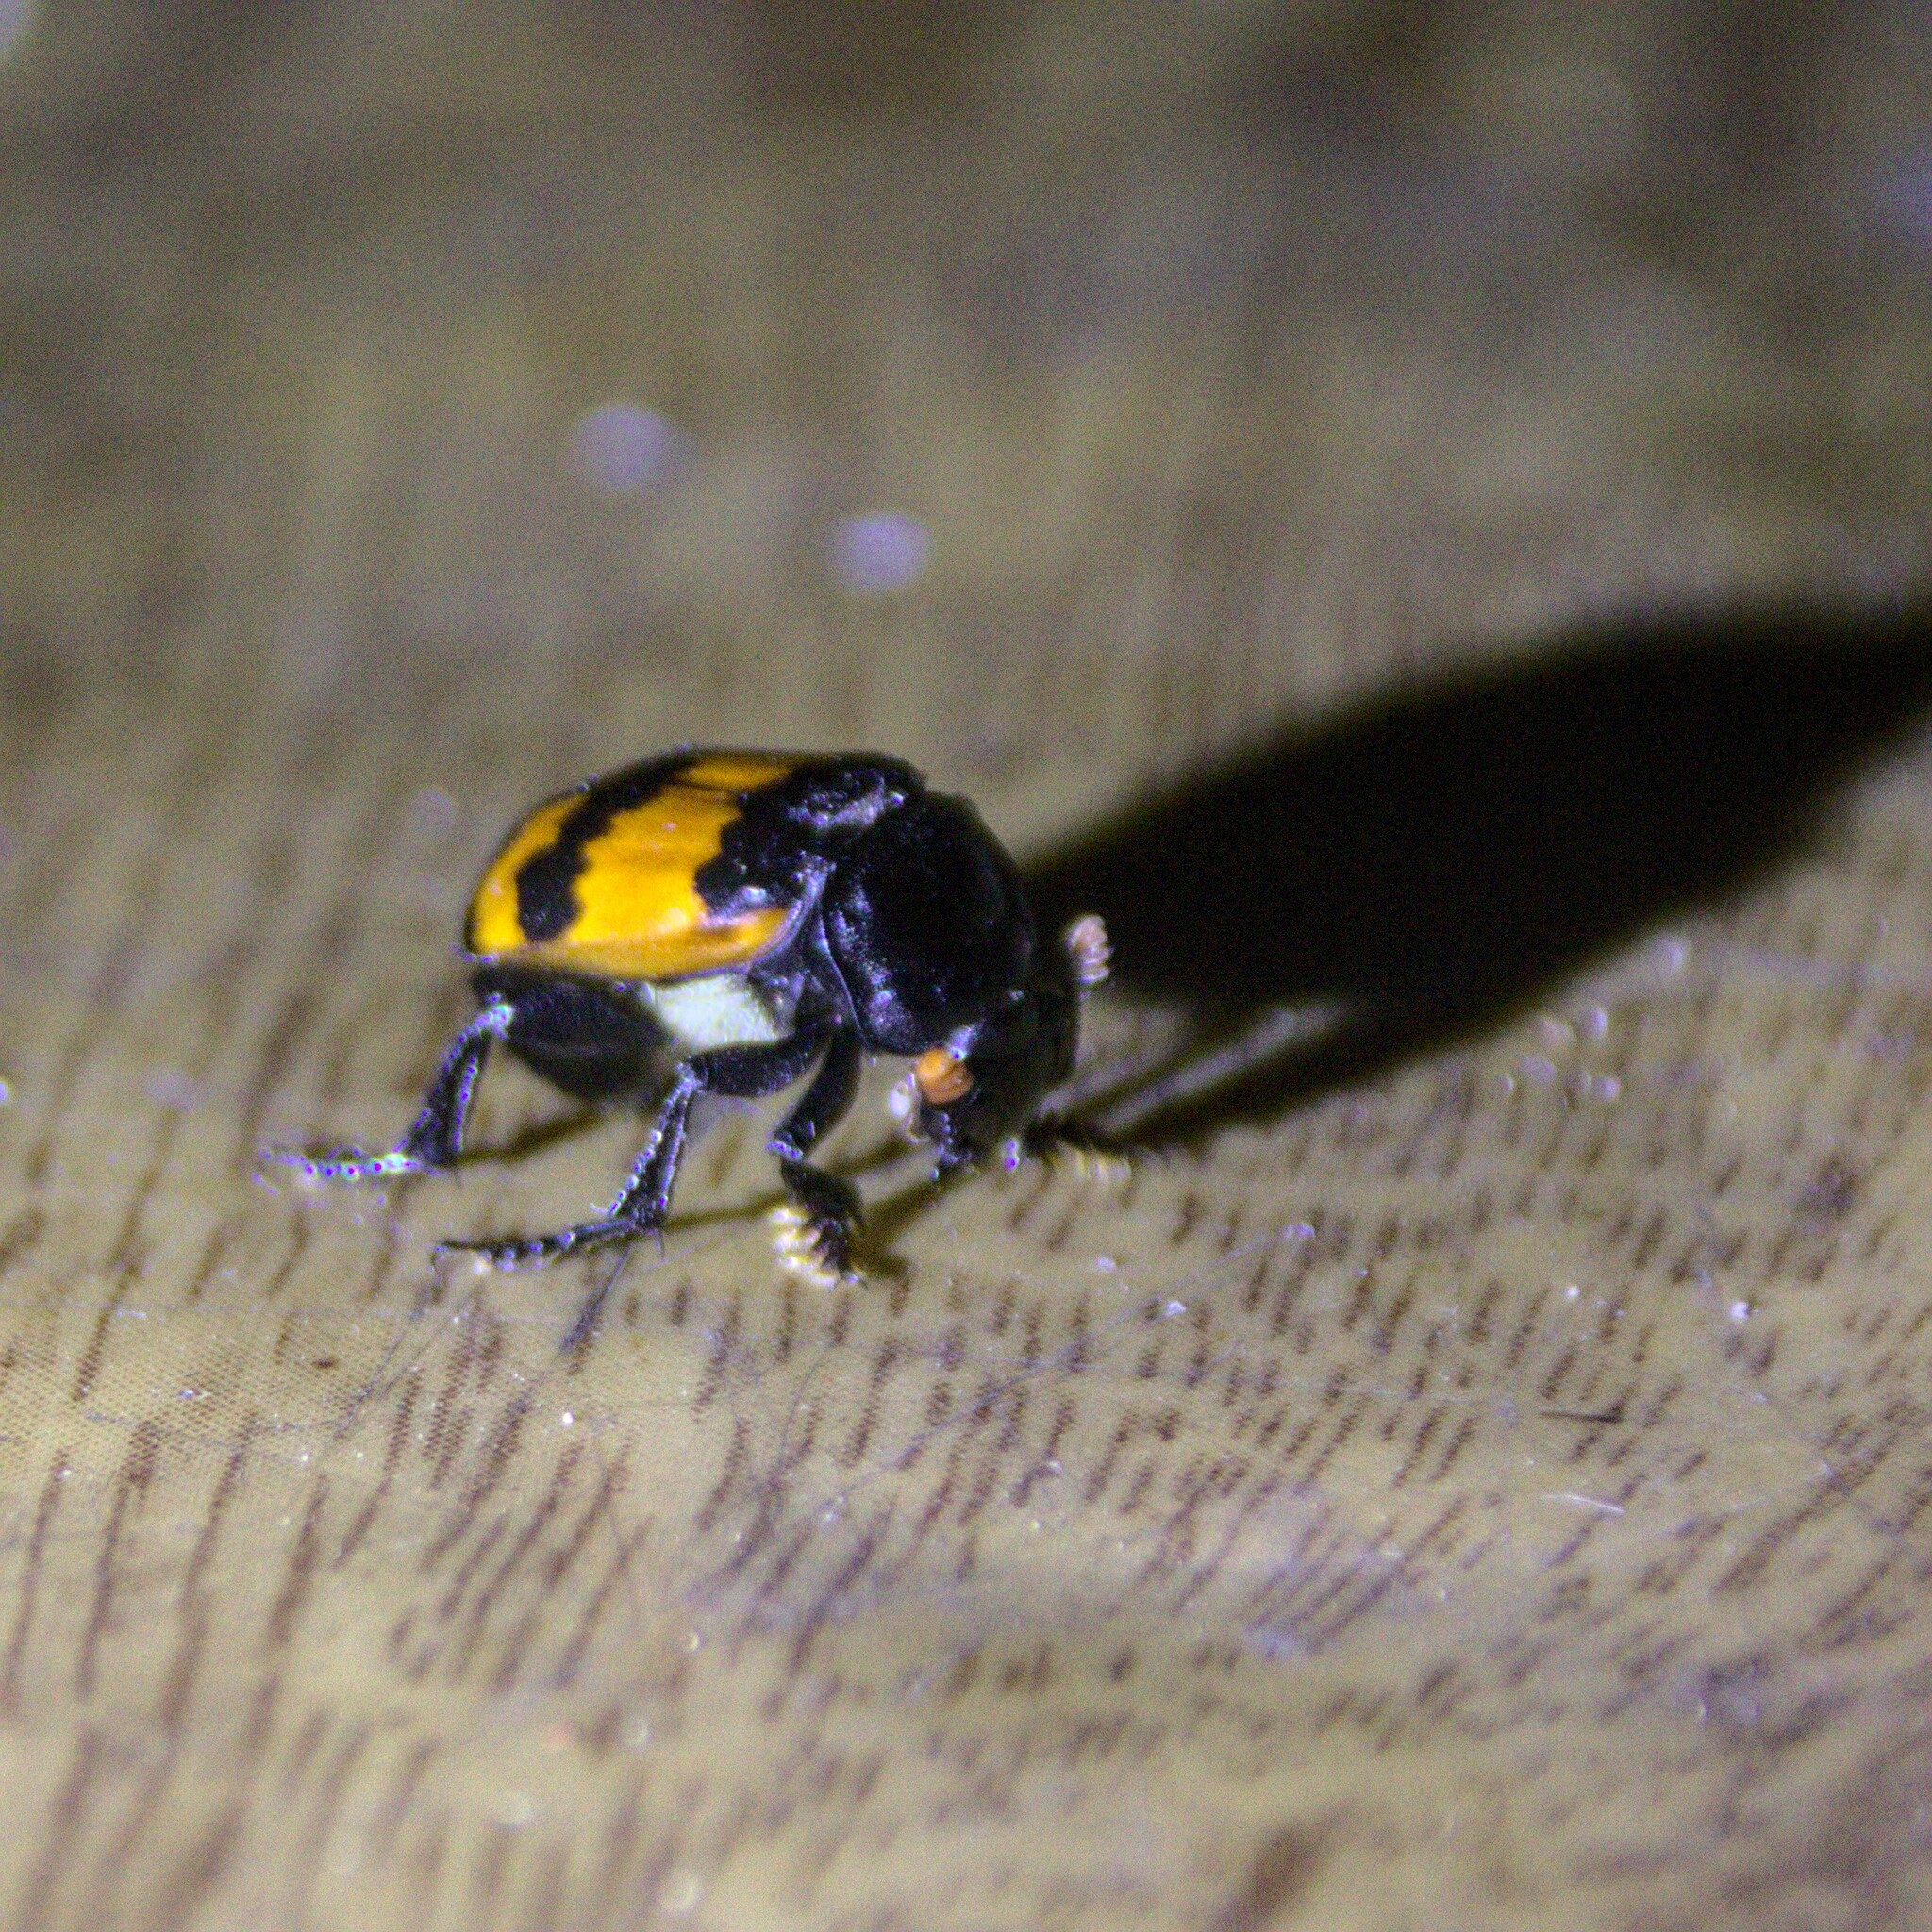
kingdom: Animalia
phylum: Arthropoda
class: Insecta
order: Coleoptera
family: Staphylinidae
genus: Nicrophorus
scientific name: Nicrophorus investigator
